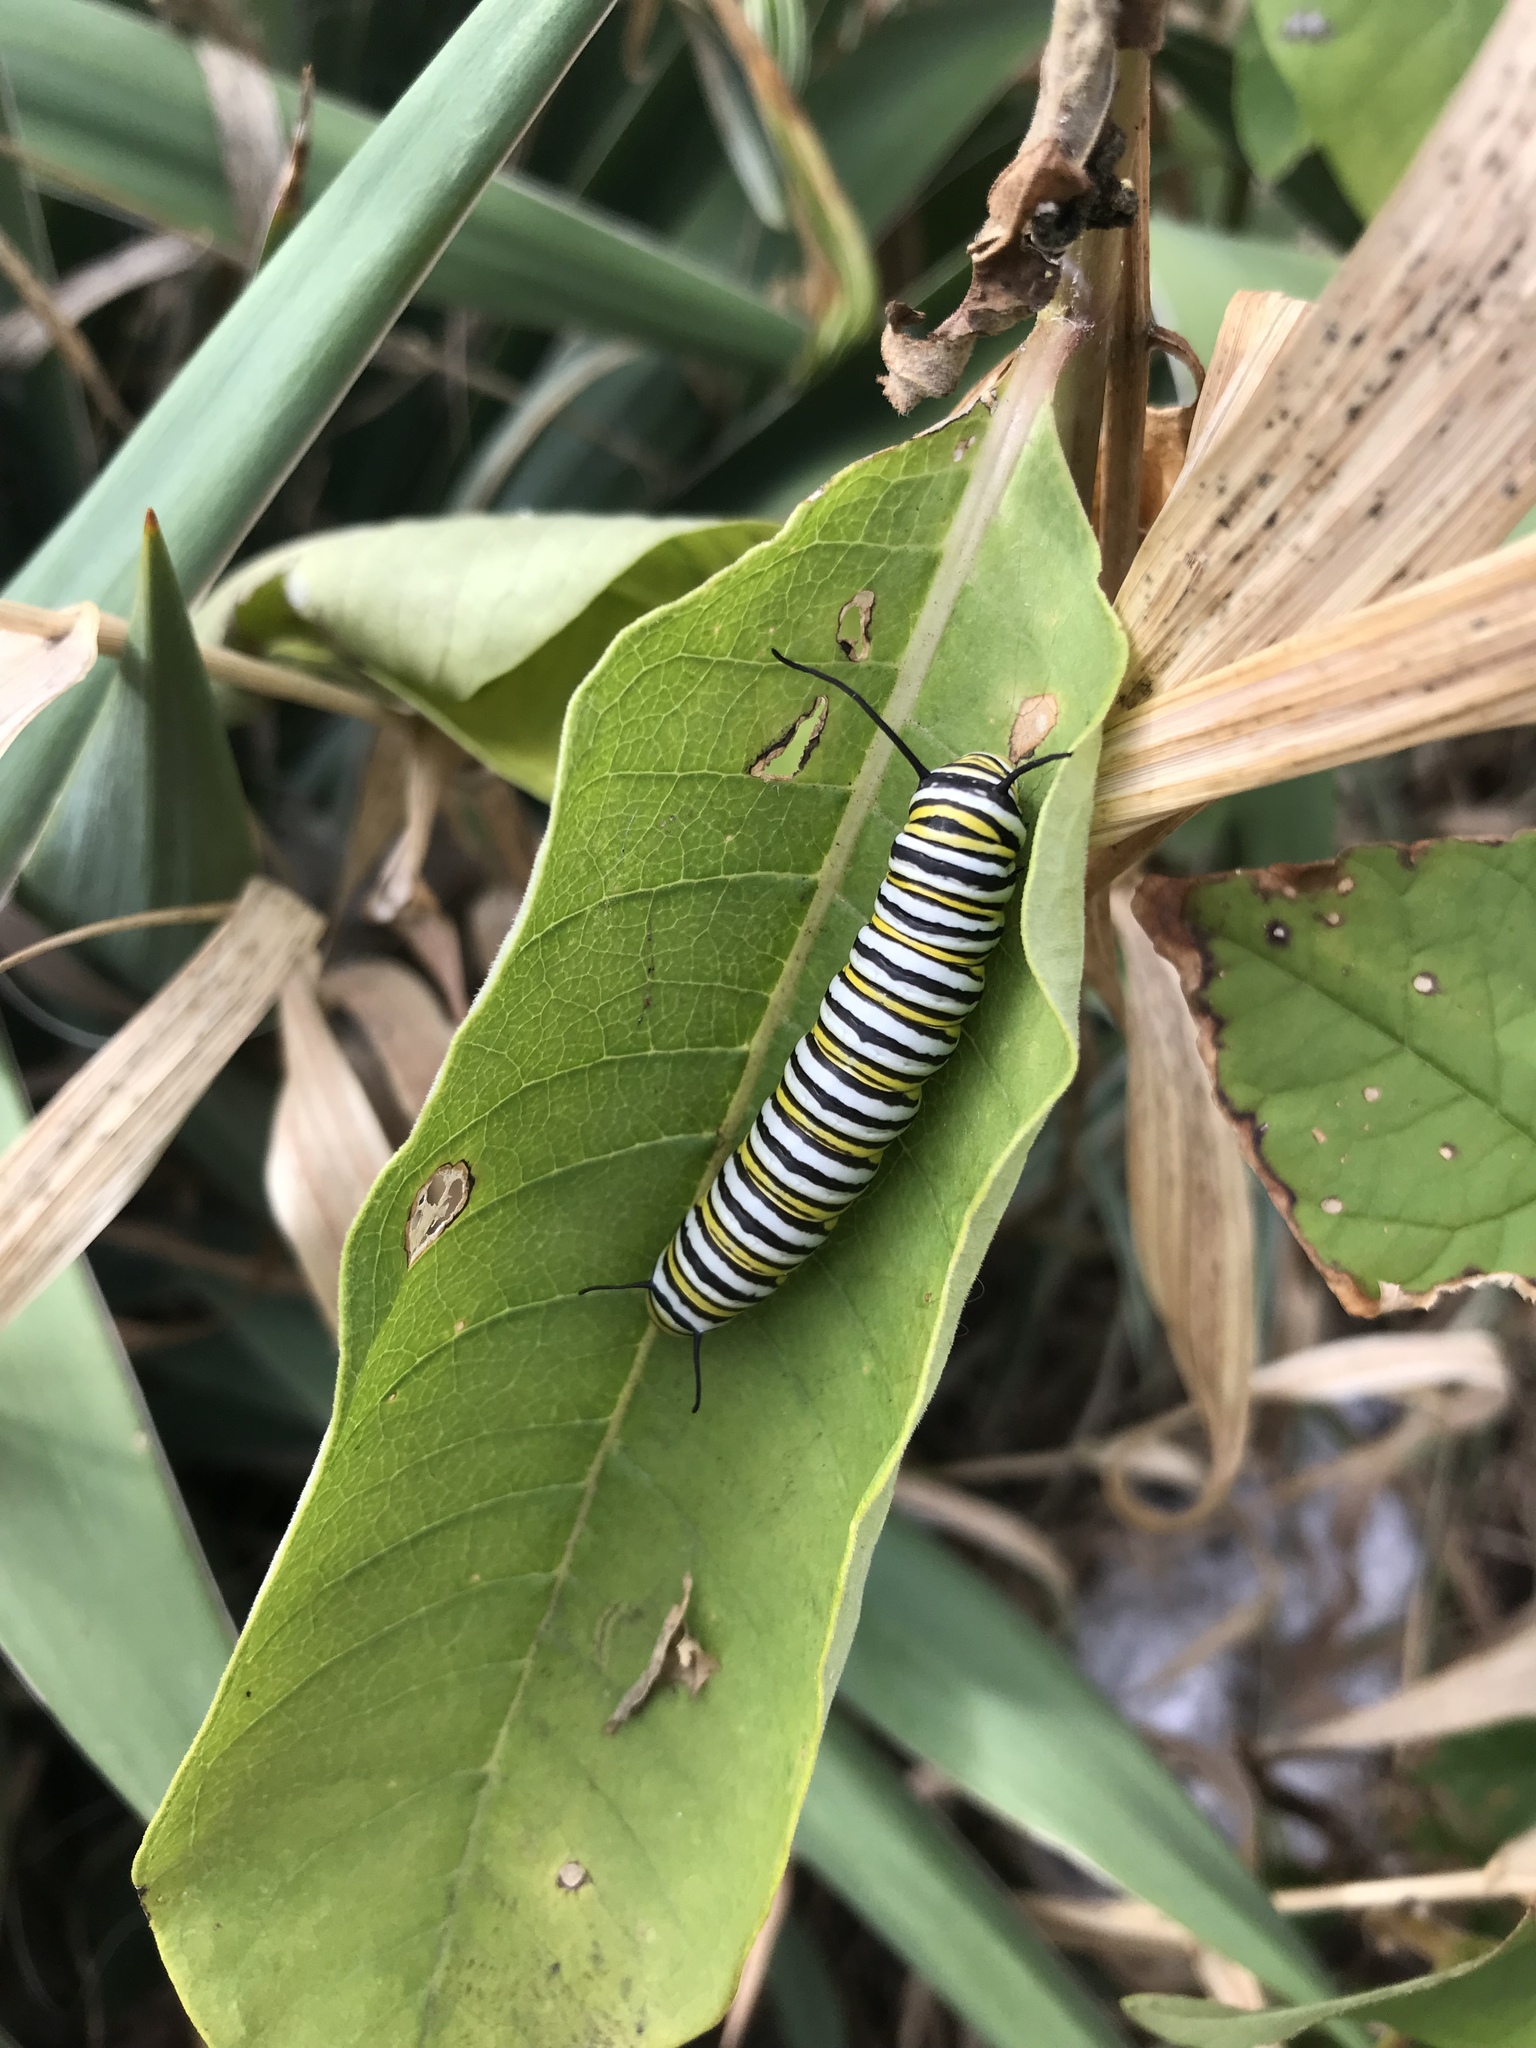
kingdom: Animalia
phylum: Arthropoda
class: Insecta
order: Lepidoptera
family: Nymphalidae
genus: Danaus
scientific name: Danaus plexippus
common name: Monarch
